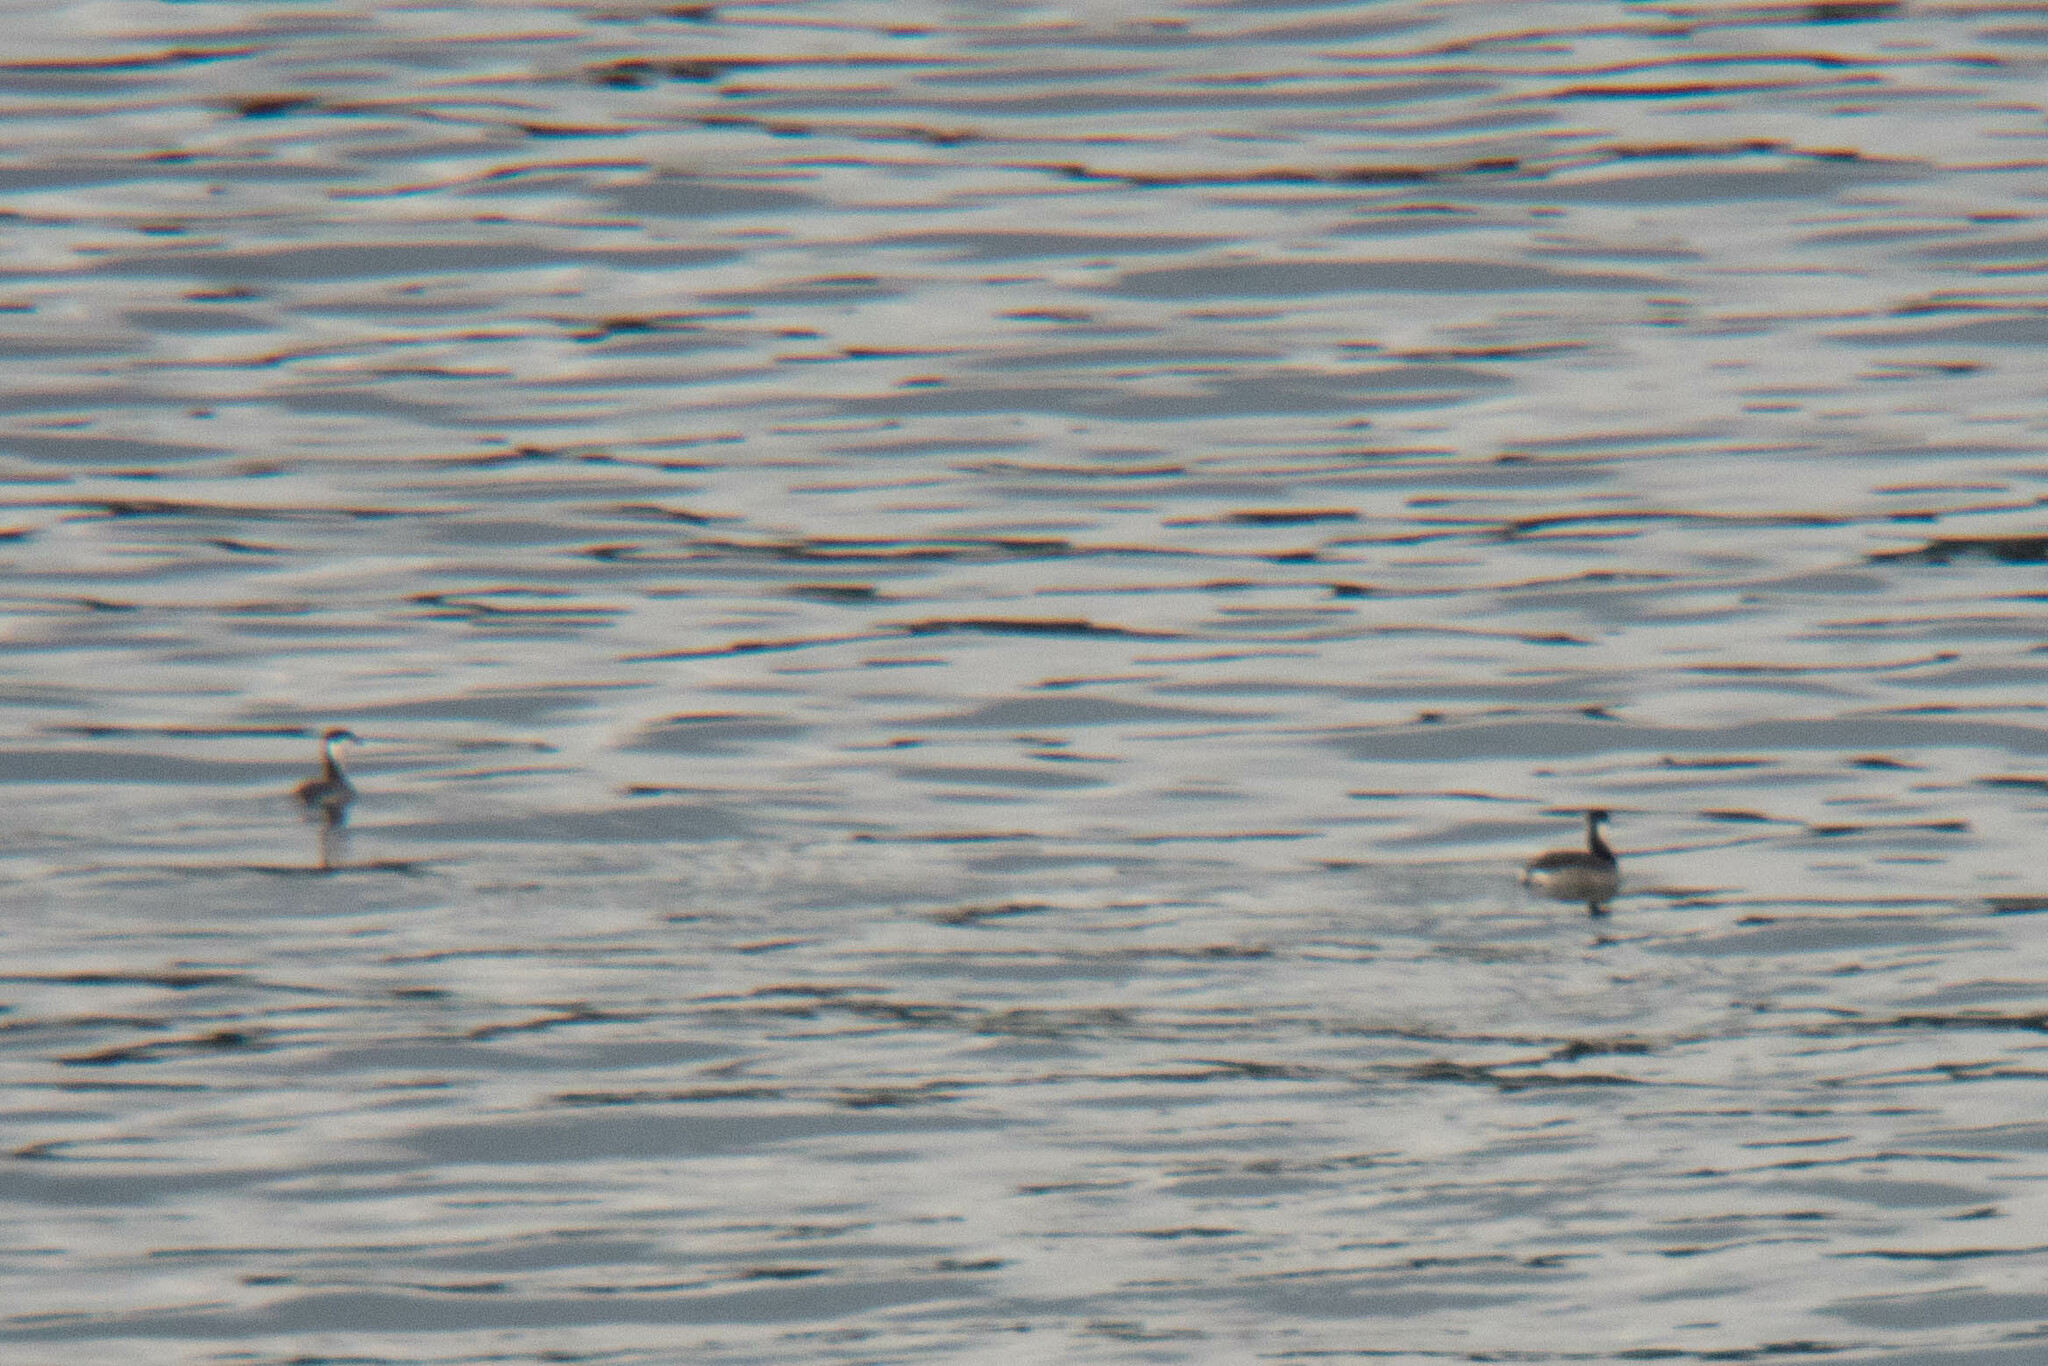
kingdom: Animalia
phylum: Chordata
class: Aves
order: Podicipediformes
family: Podicipedidae
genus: Podiceps
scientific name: Podiceps auritus
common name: Horned grebe
